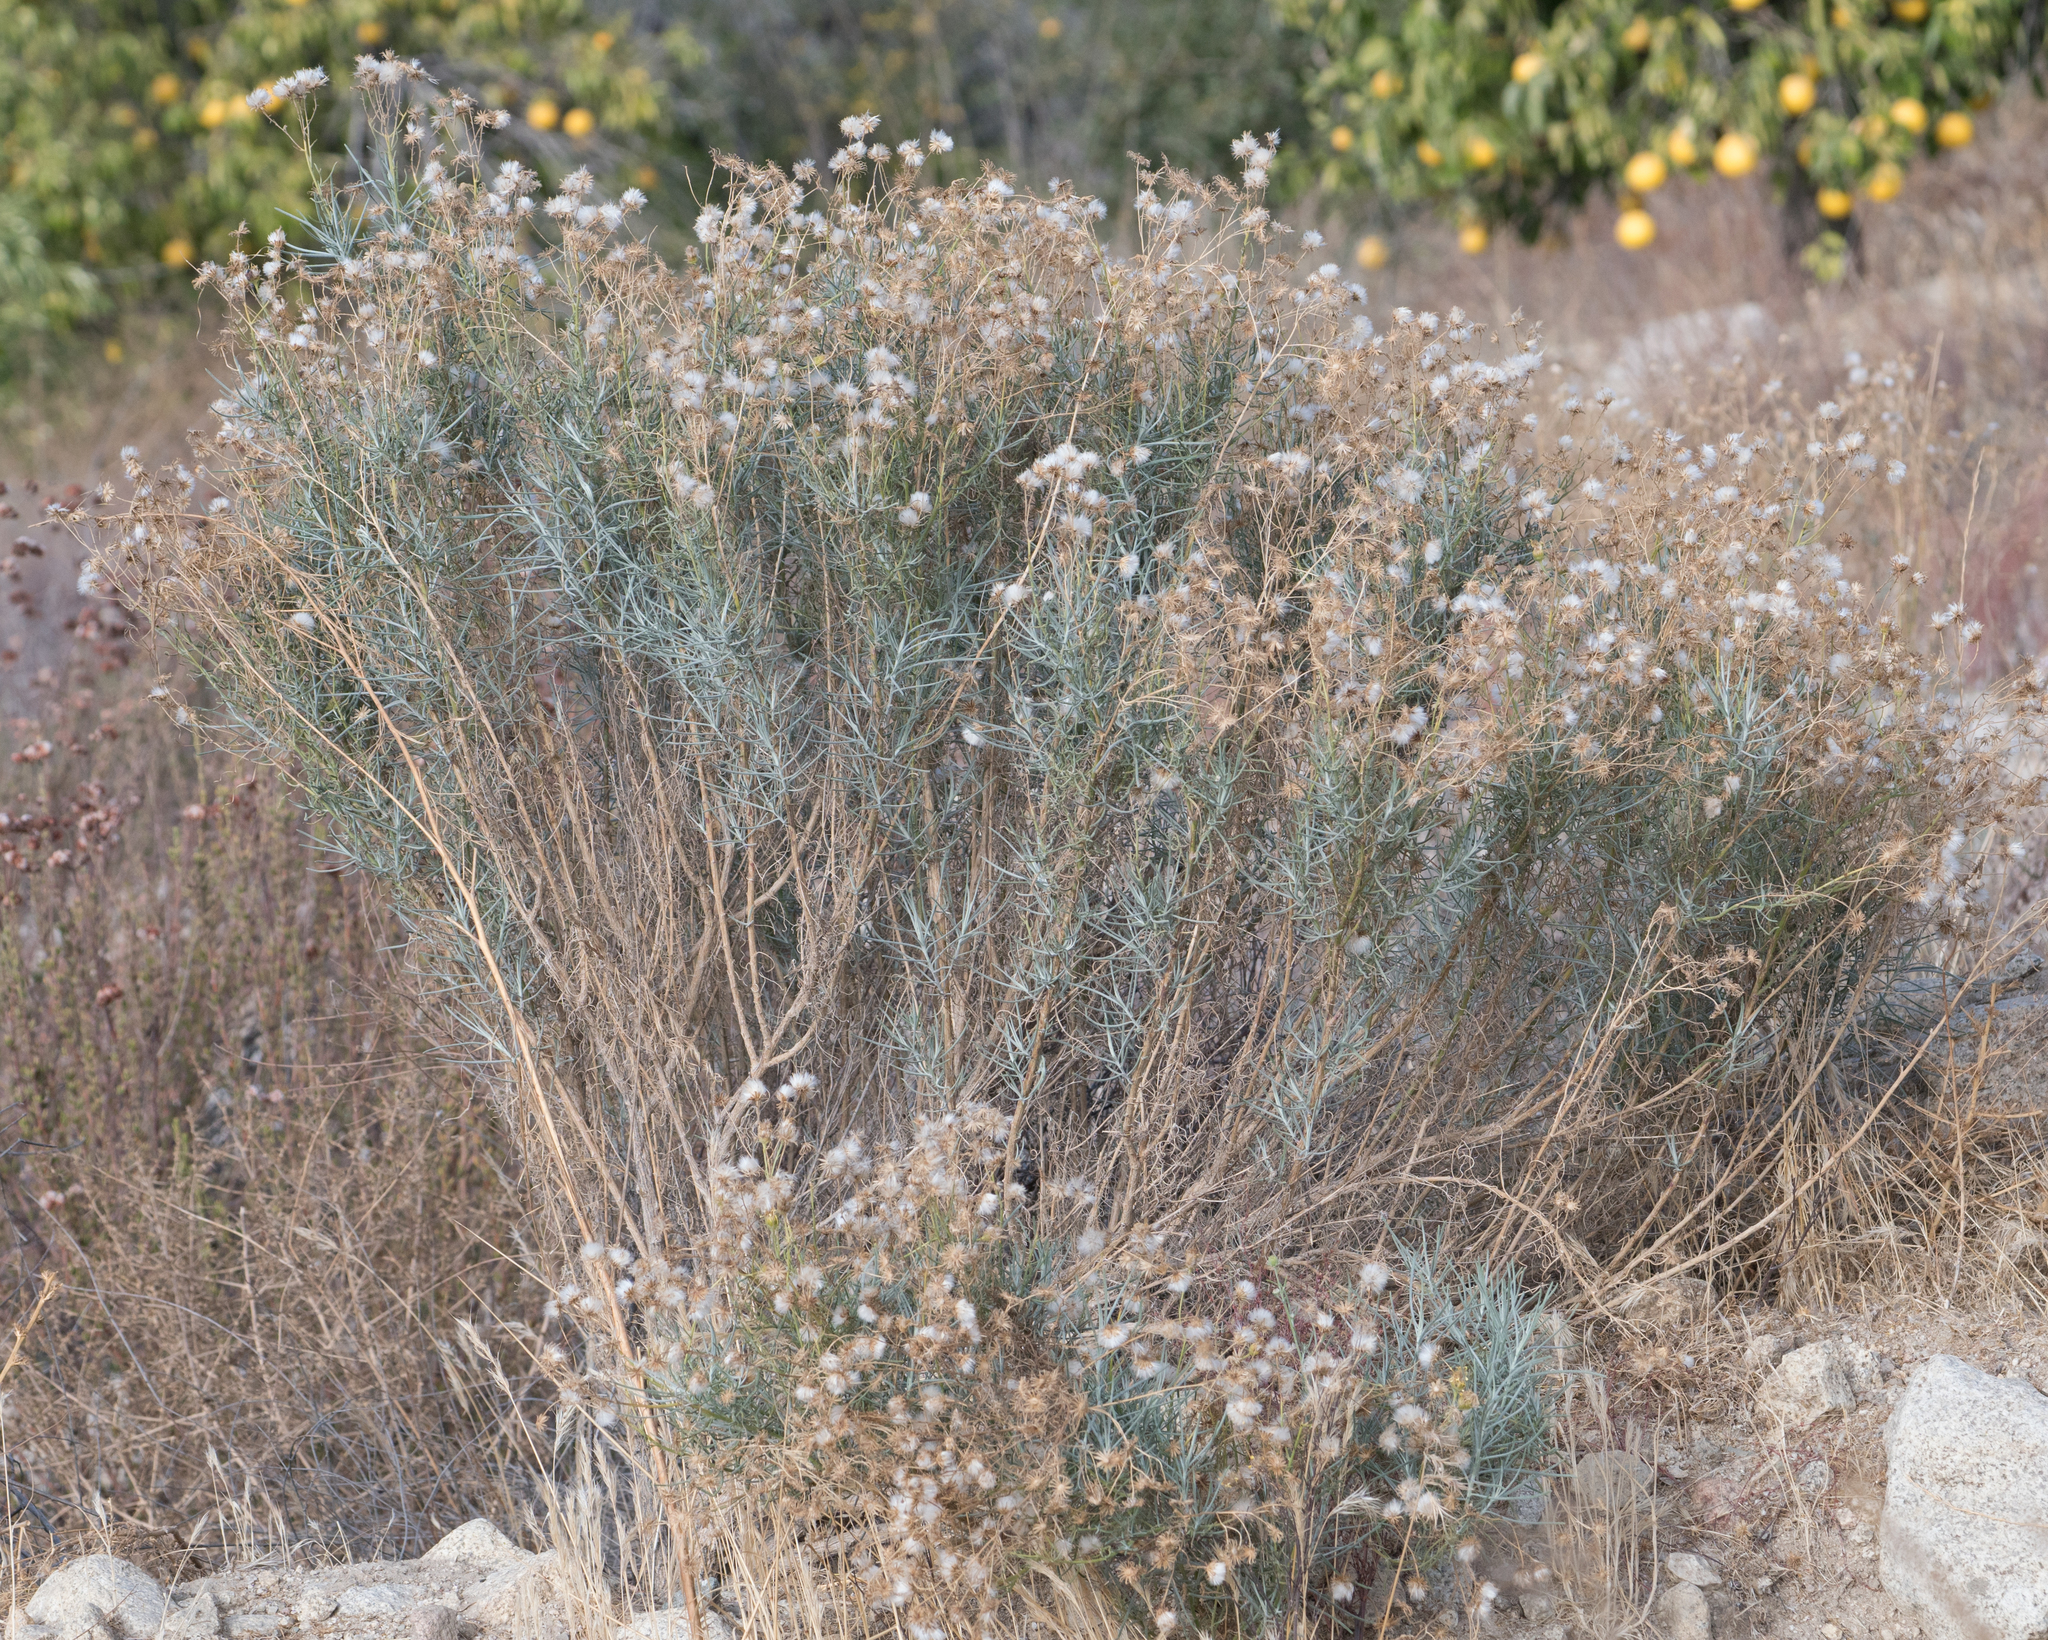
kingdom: Plantae
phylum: Tracheophyta
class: Magnoliopsida
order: Asterales
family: Asteraceae
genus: Senecio
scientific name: Senecio flaccidus
